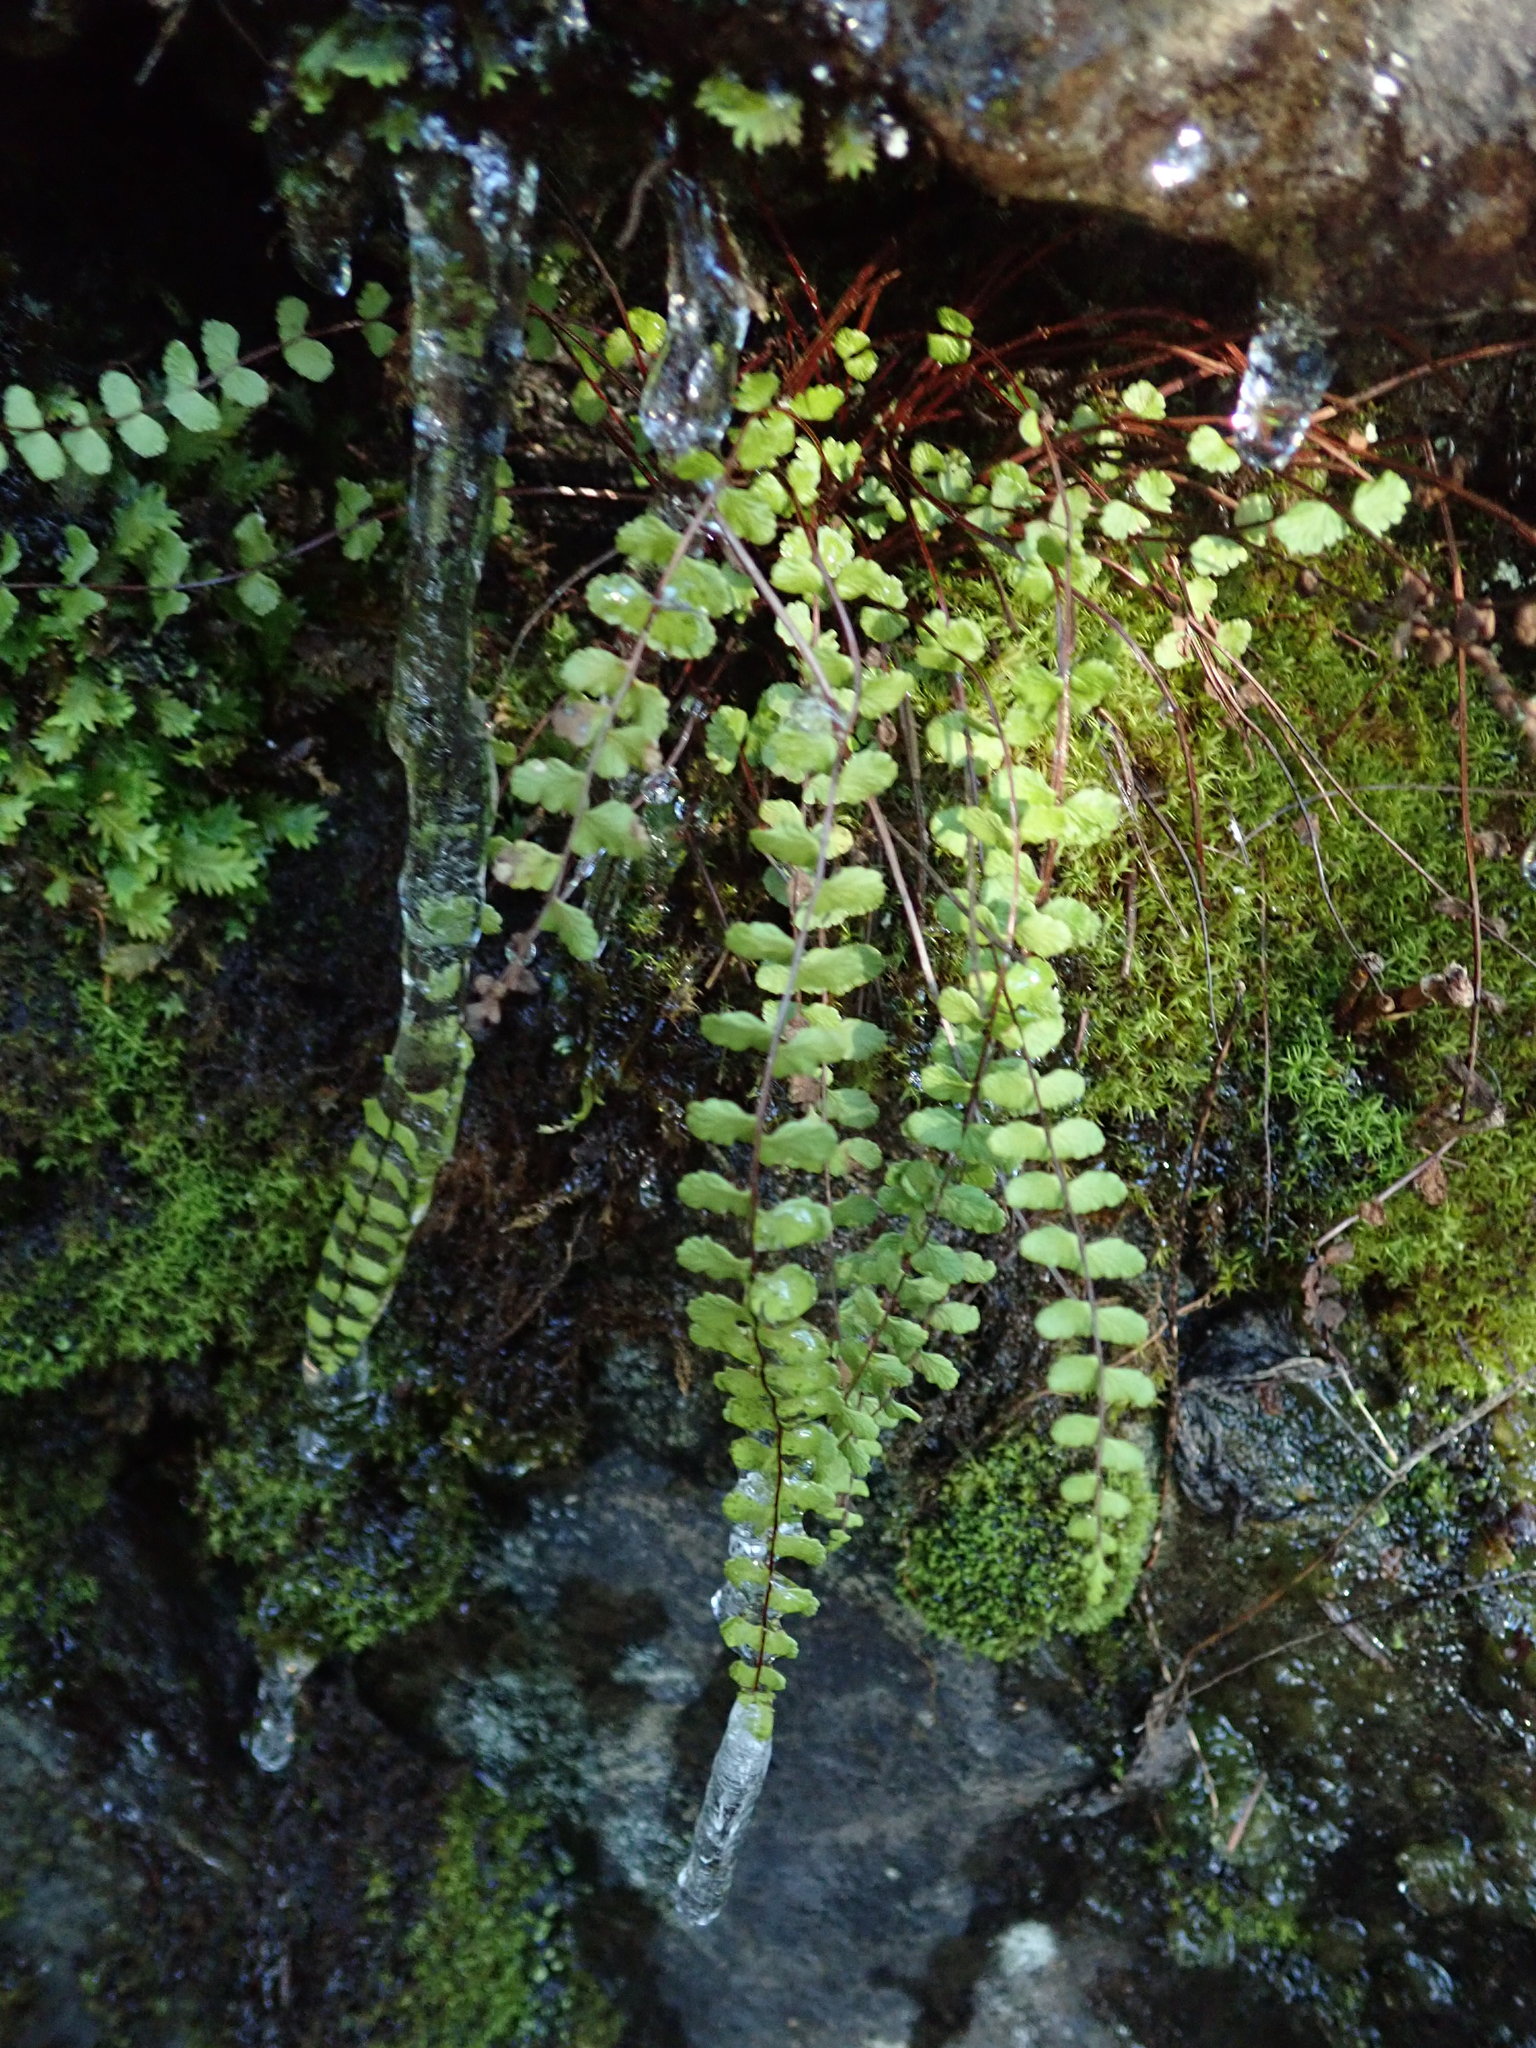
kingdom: Plantae
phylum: Tracheophyta
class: Polypodiopsida
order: Polypodiales
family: Aspleniaceae
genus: Asplenium
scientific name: Asplenium trichomanes
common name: Maidenhair spleenwort
